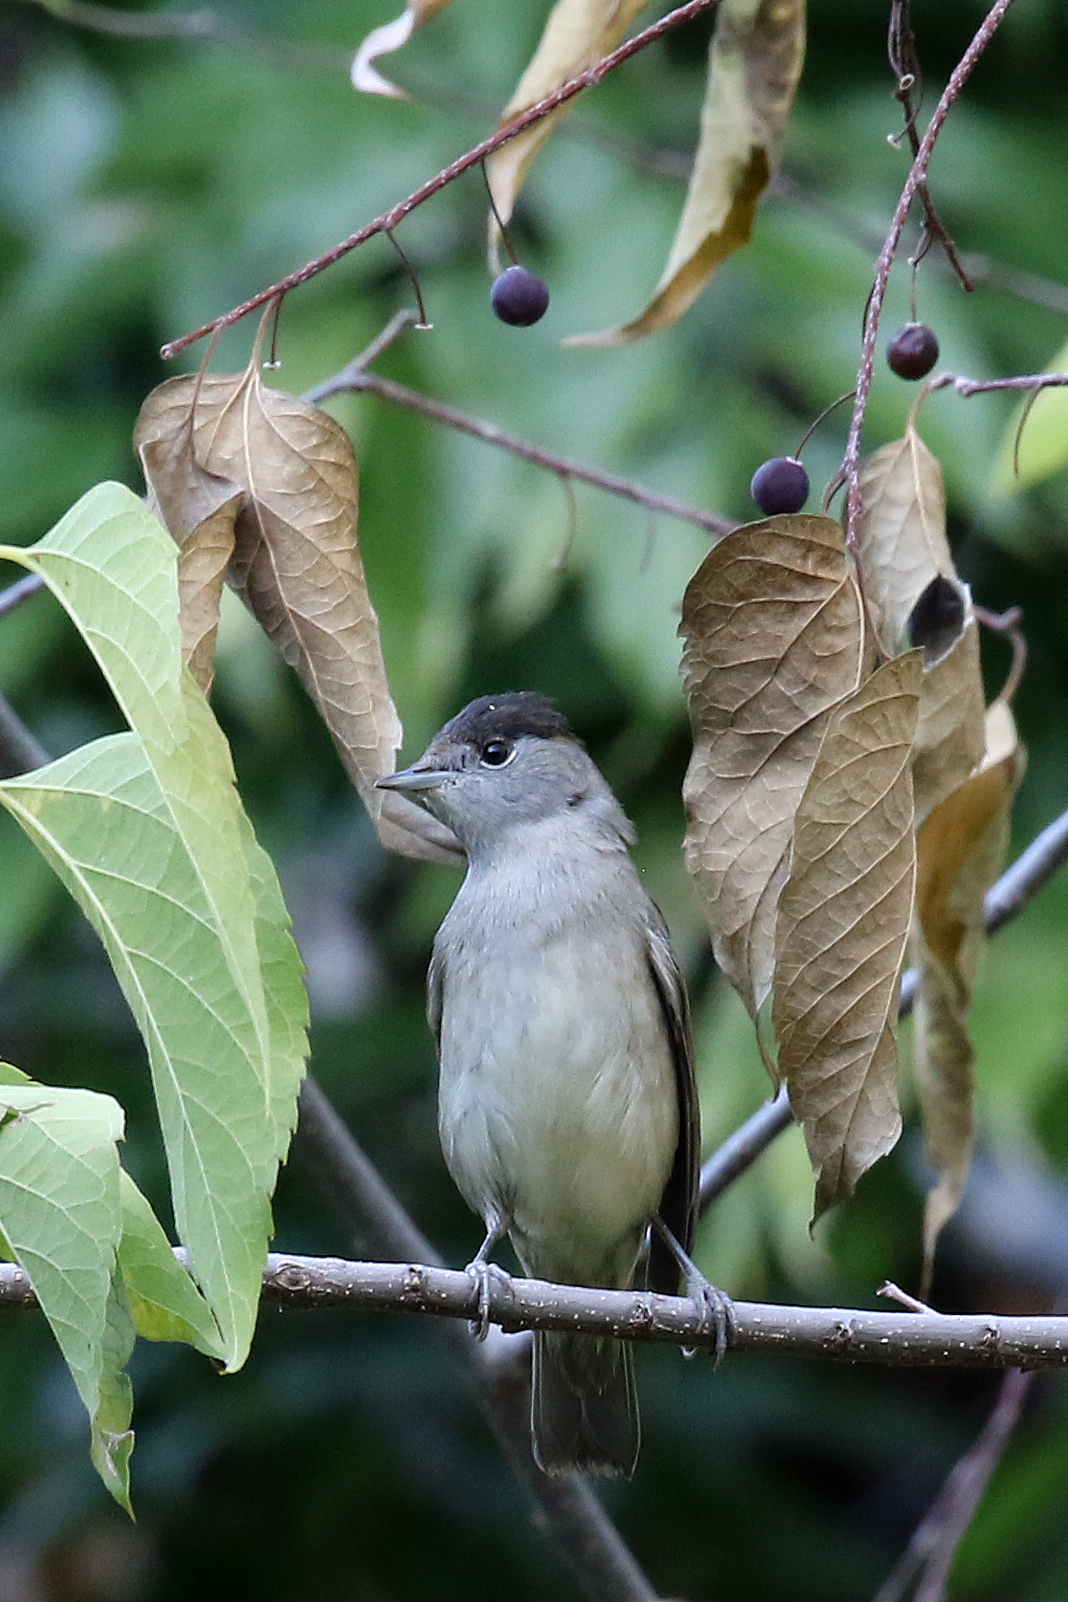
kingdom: Animalia
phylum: Chordata
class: Aves
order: Passeriformes
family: Sylviidae
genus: Sylvia
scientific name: Sylvia atricapilla
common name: Eurasian blackcap
